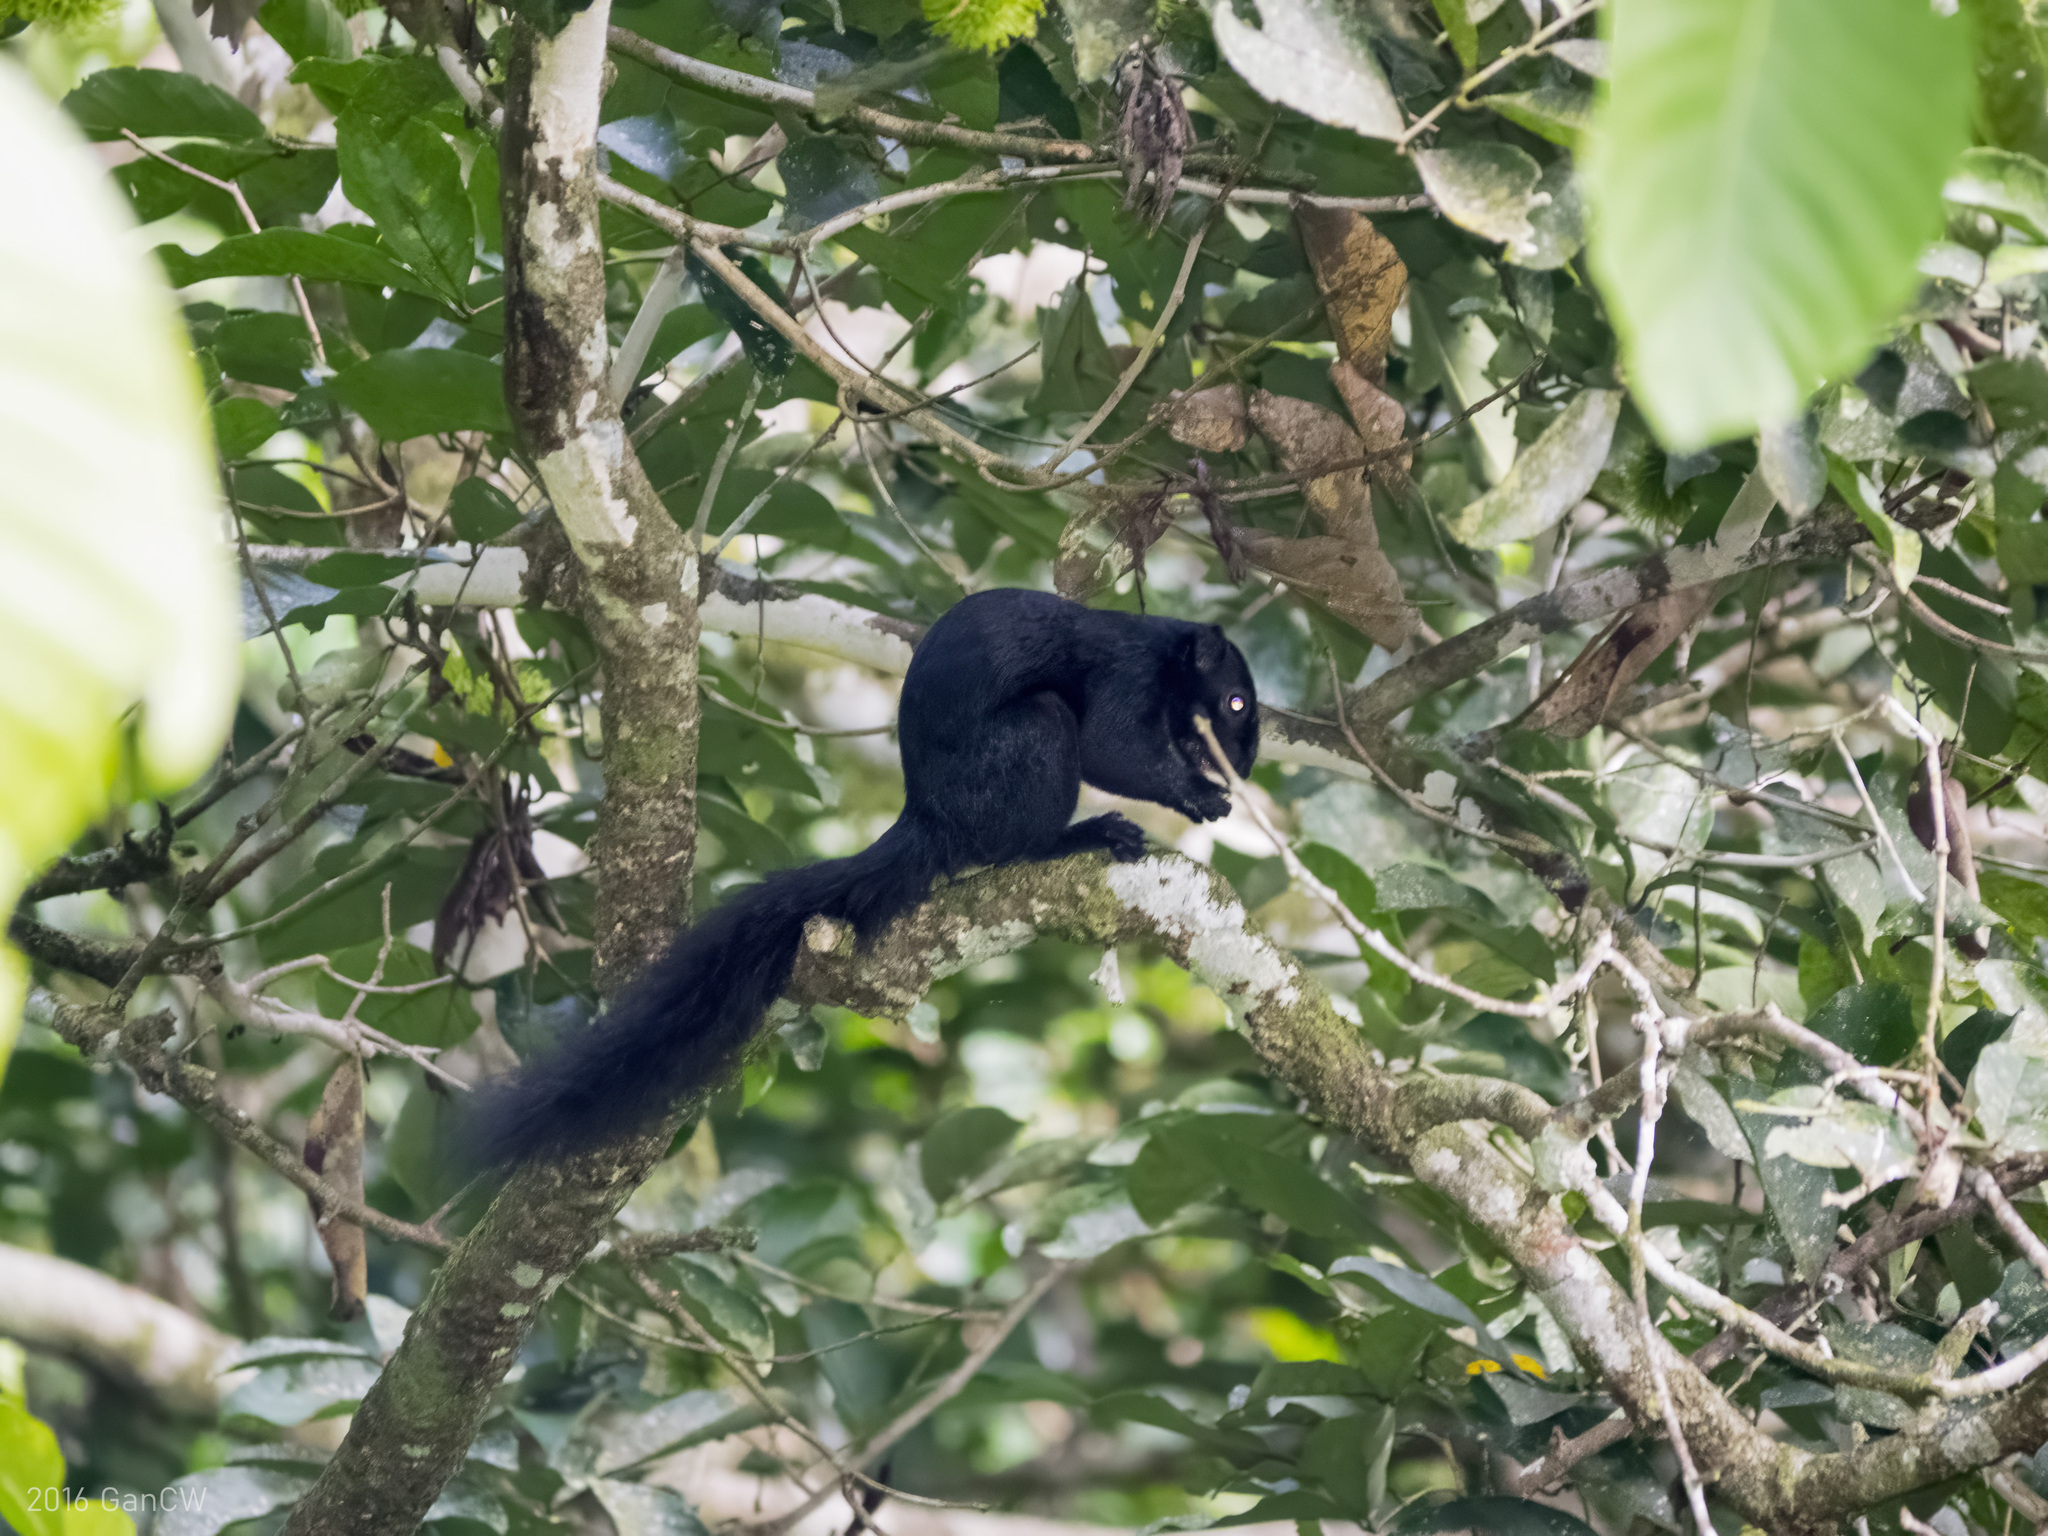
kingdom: Animalia
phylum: Chordata
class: Mammalia
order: Rodentia
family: Sciuridae
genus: Callosciurus
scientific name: Callosciurus prevostii
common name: Prevost's squirrel
